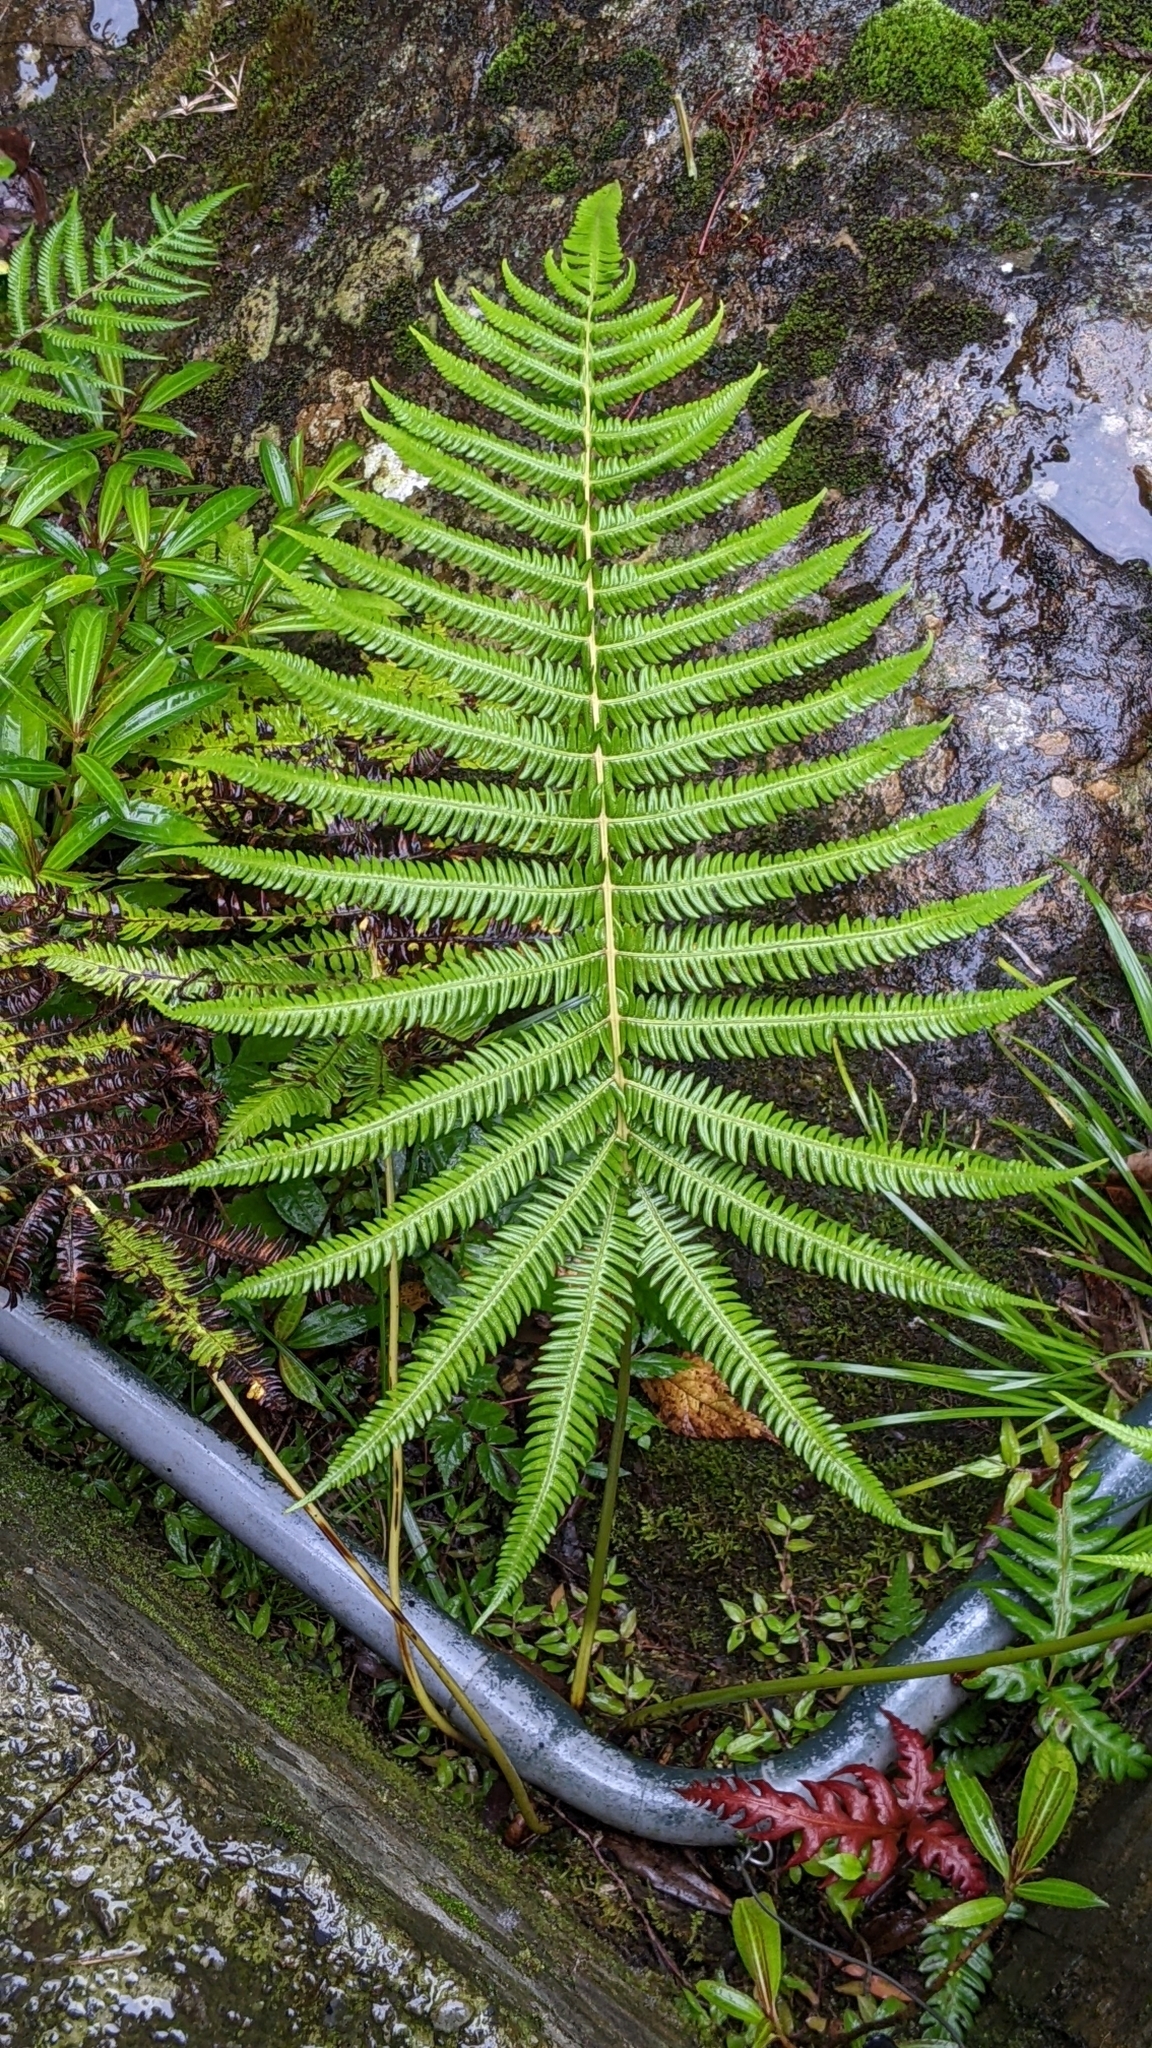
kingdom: Plantae
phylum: Tracheophyta
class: Polypodiopsida
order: Polypodiales
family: Thelypteridaceae
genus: Glaphyropteridopsis
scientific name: Glaphyropteridopsis erubescens
